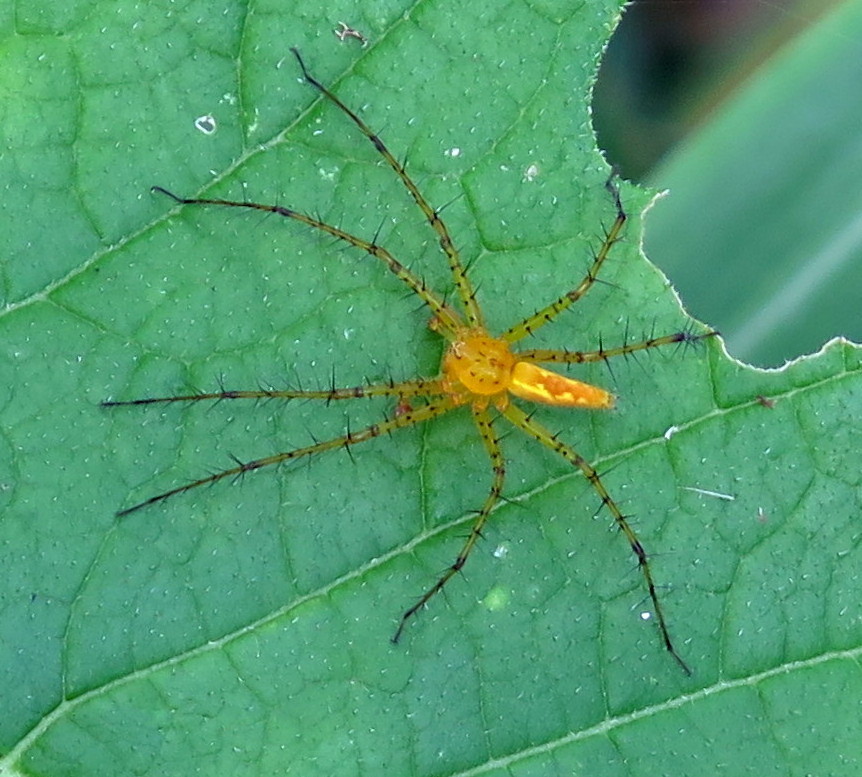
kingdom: Animalia
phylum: Arthropoda
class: Arachnida
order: Araneae
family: Pisauridae
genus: Architis
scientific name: Architis spinipes
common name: Nursery web spiders
